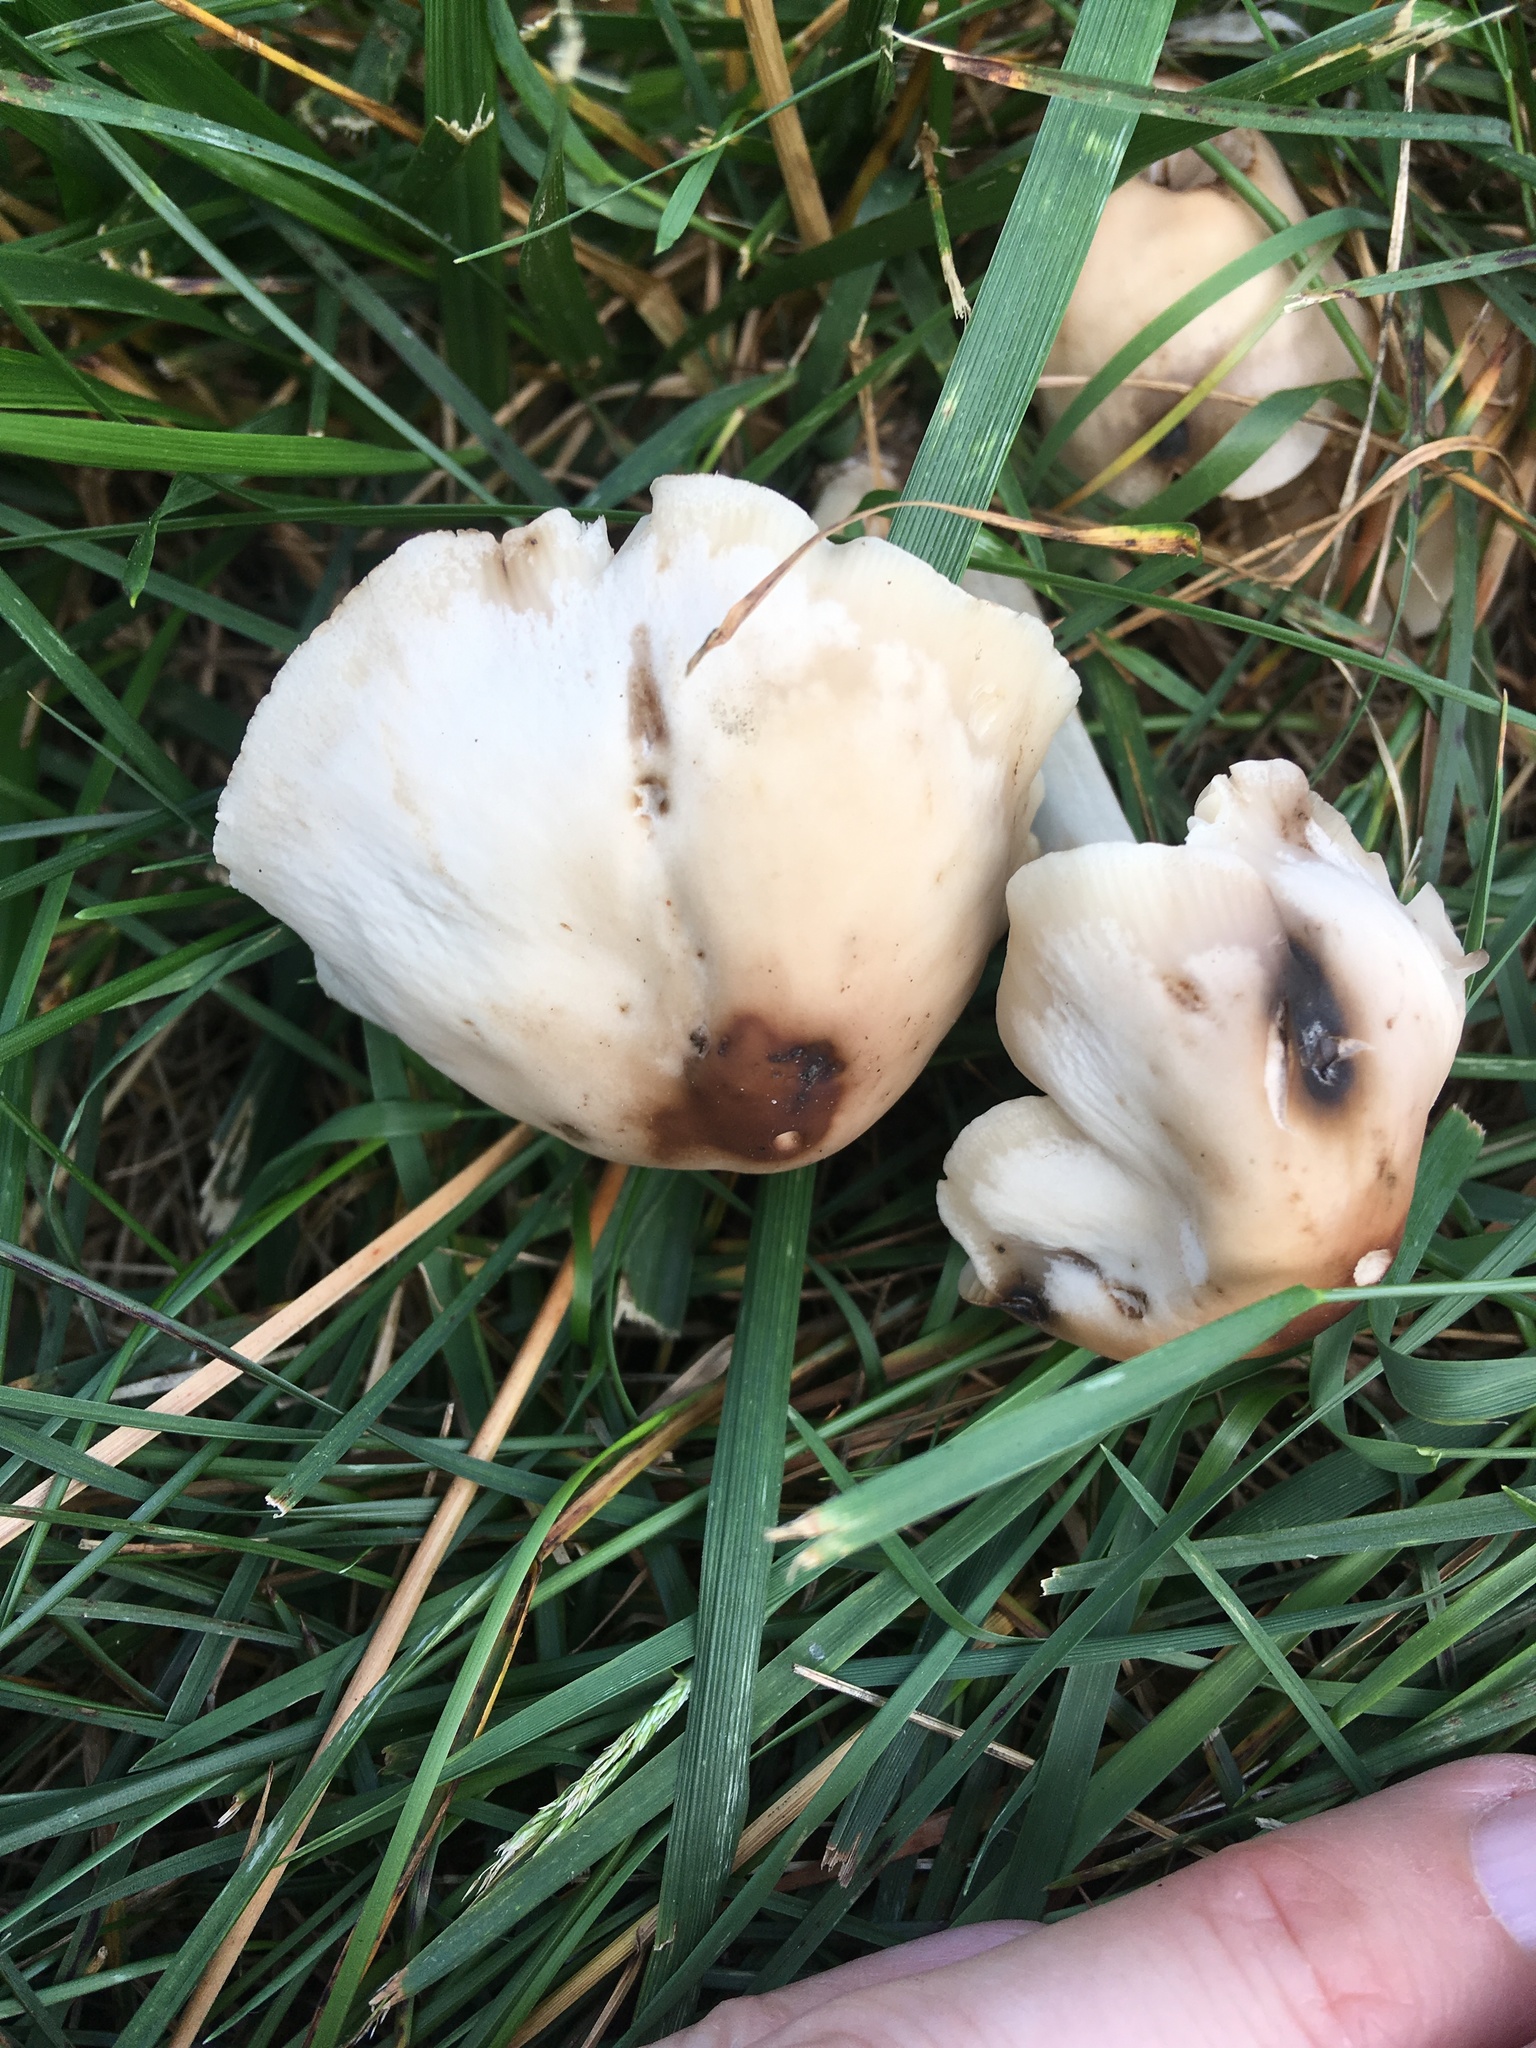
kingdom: Fungi
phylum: Basidiomycota
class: Agaricomycetes
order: Agaricales
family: Marasmiaceae
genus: Marasmius
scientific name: Marasmius nigrodiscus
